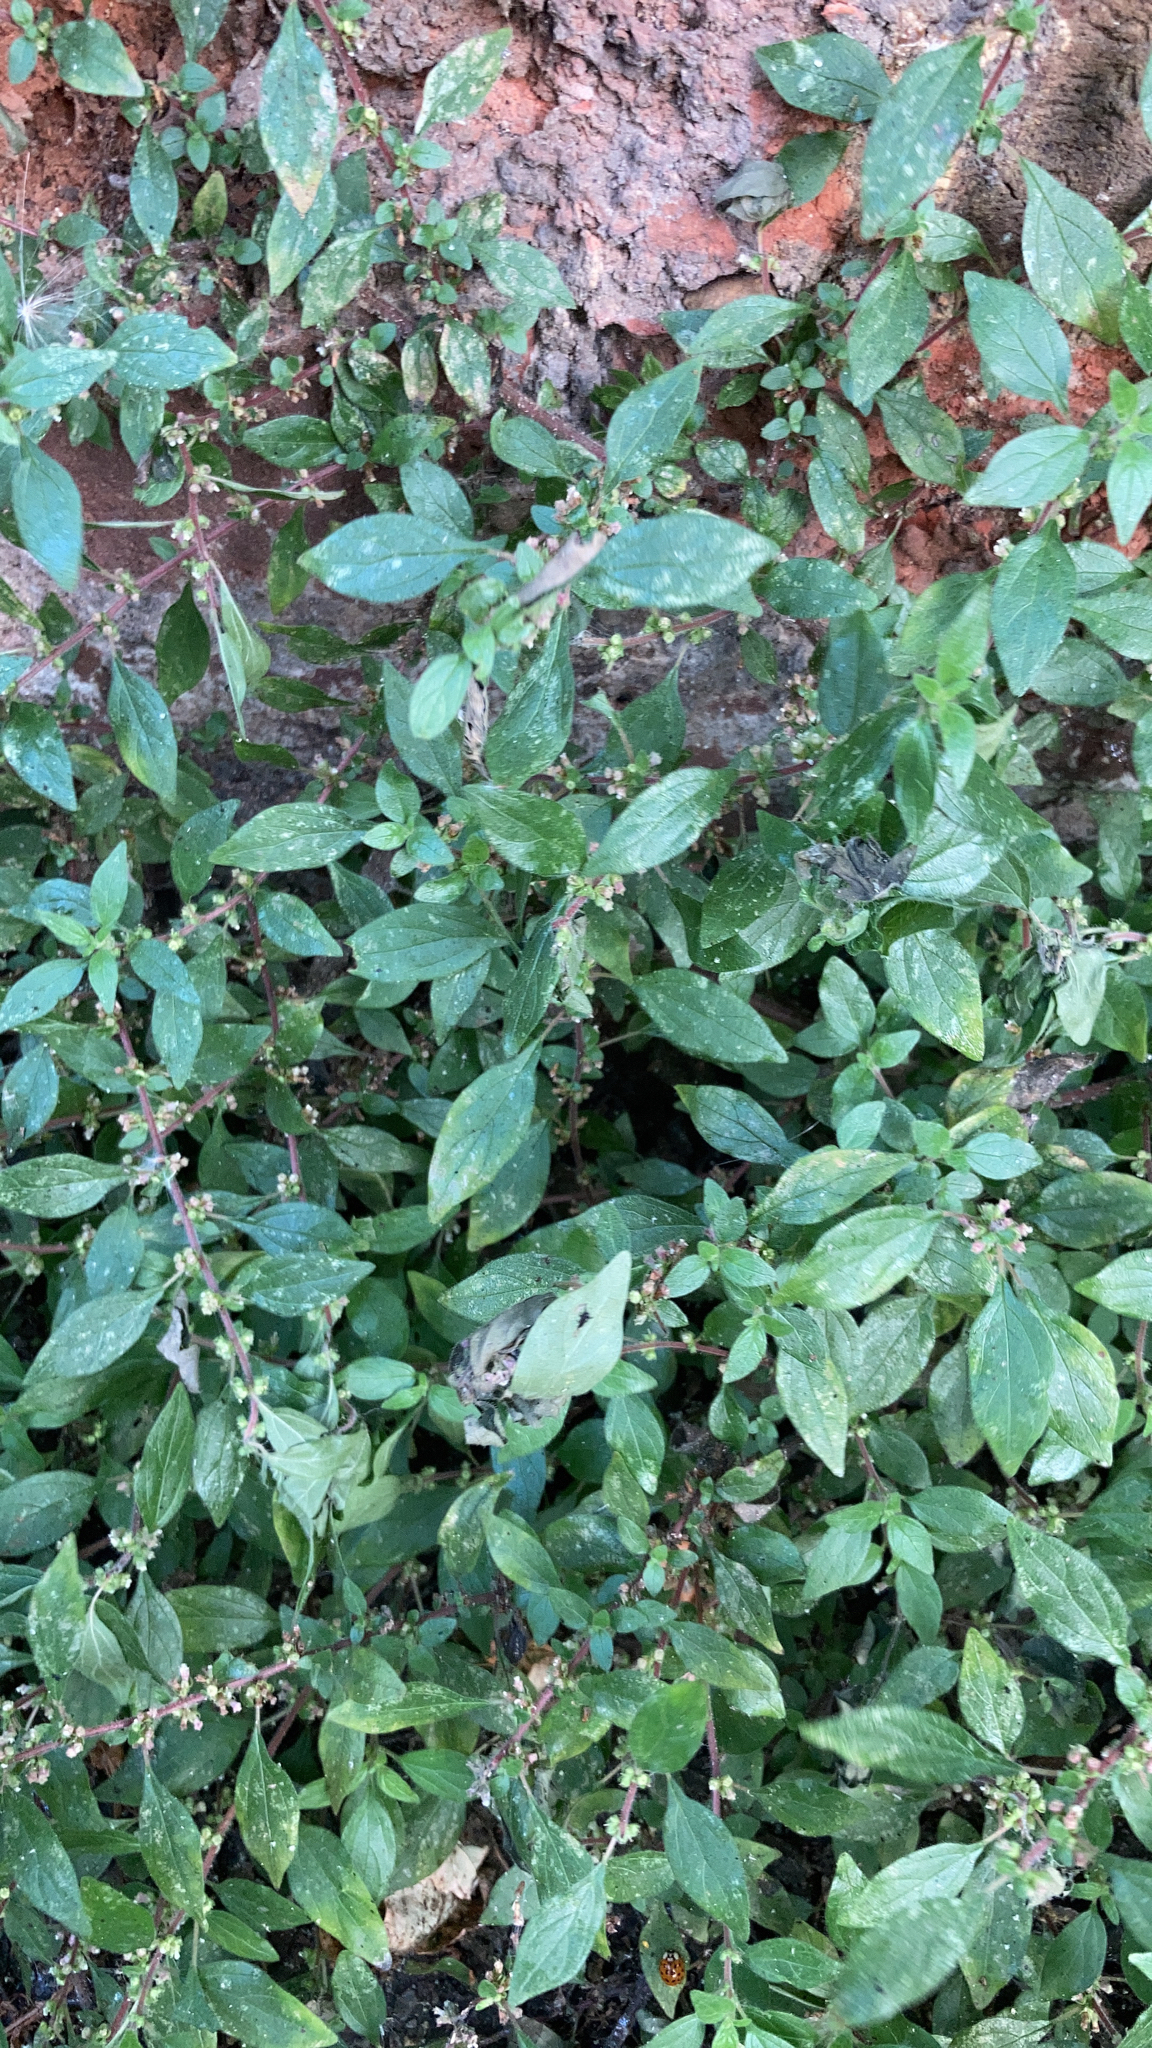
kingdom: Plantae
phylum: Tracheophyta
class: Magnoliopsida
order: Rosales
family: Urticaceae
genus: Parietaria
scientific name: Parietaria judaica
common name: Pellitory-of-the-wall
